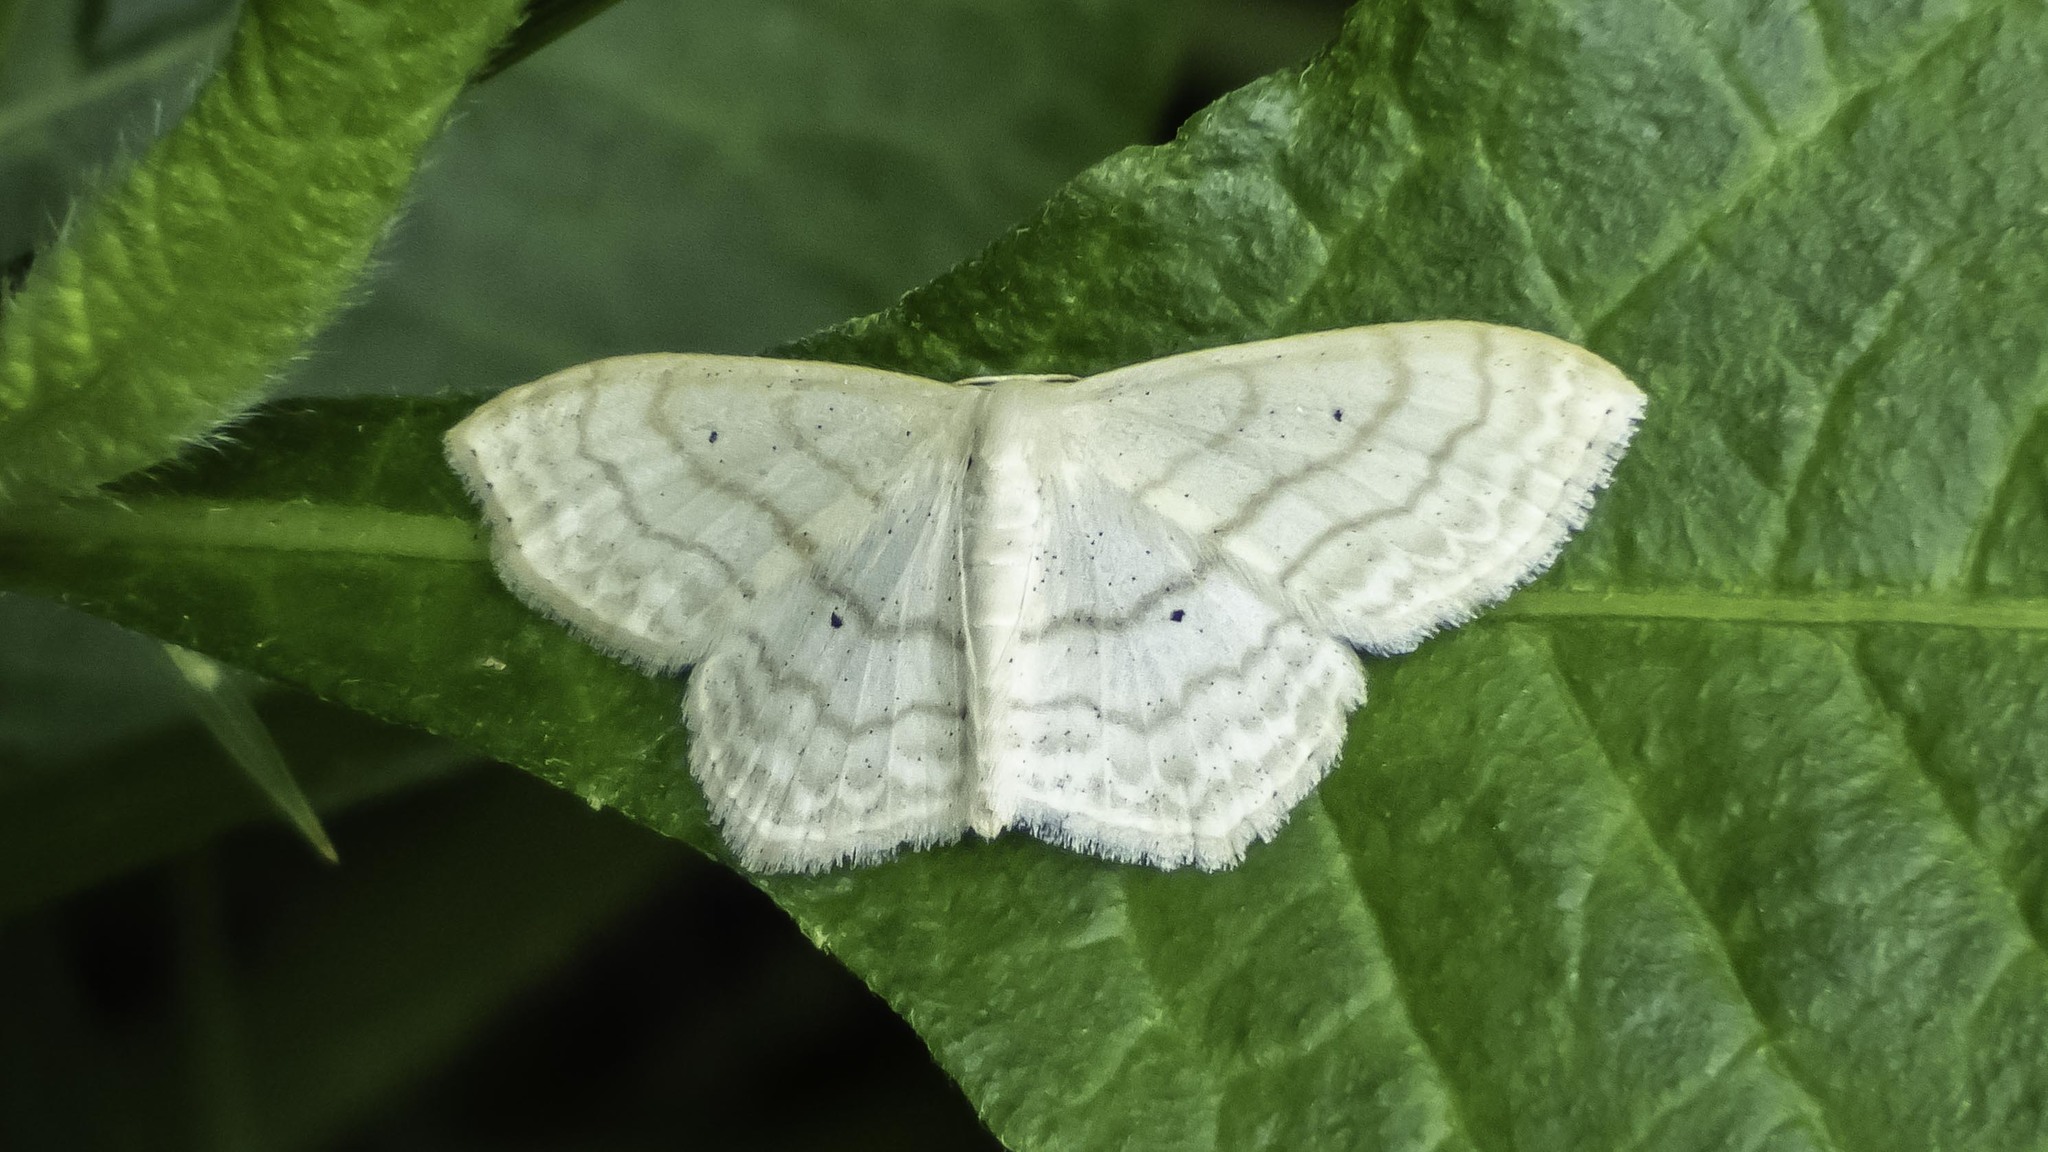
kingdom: Animalia
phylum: Arthropoda
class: Insecta
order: Lepidoptera
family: Geometridae
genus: Scopula
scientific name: Scopula limboundata
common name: Large lace border
